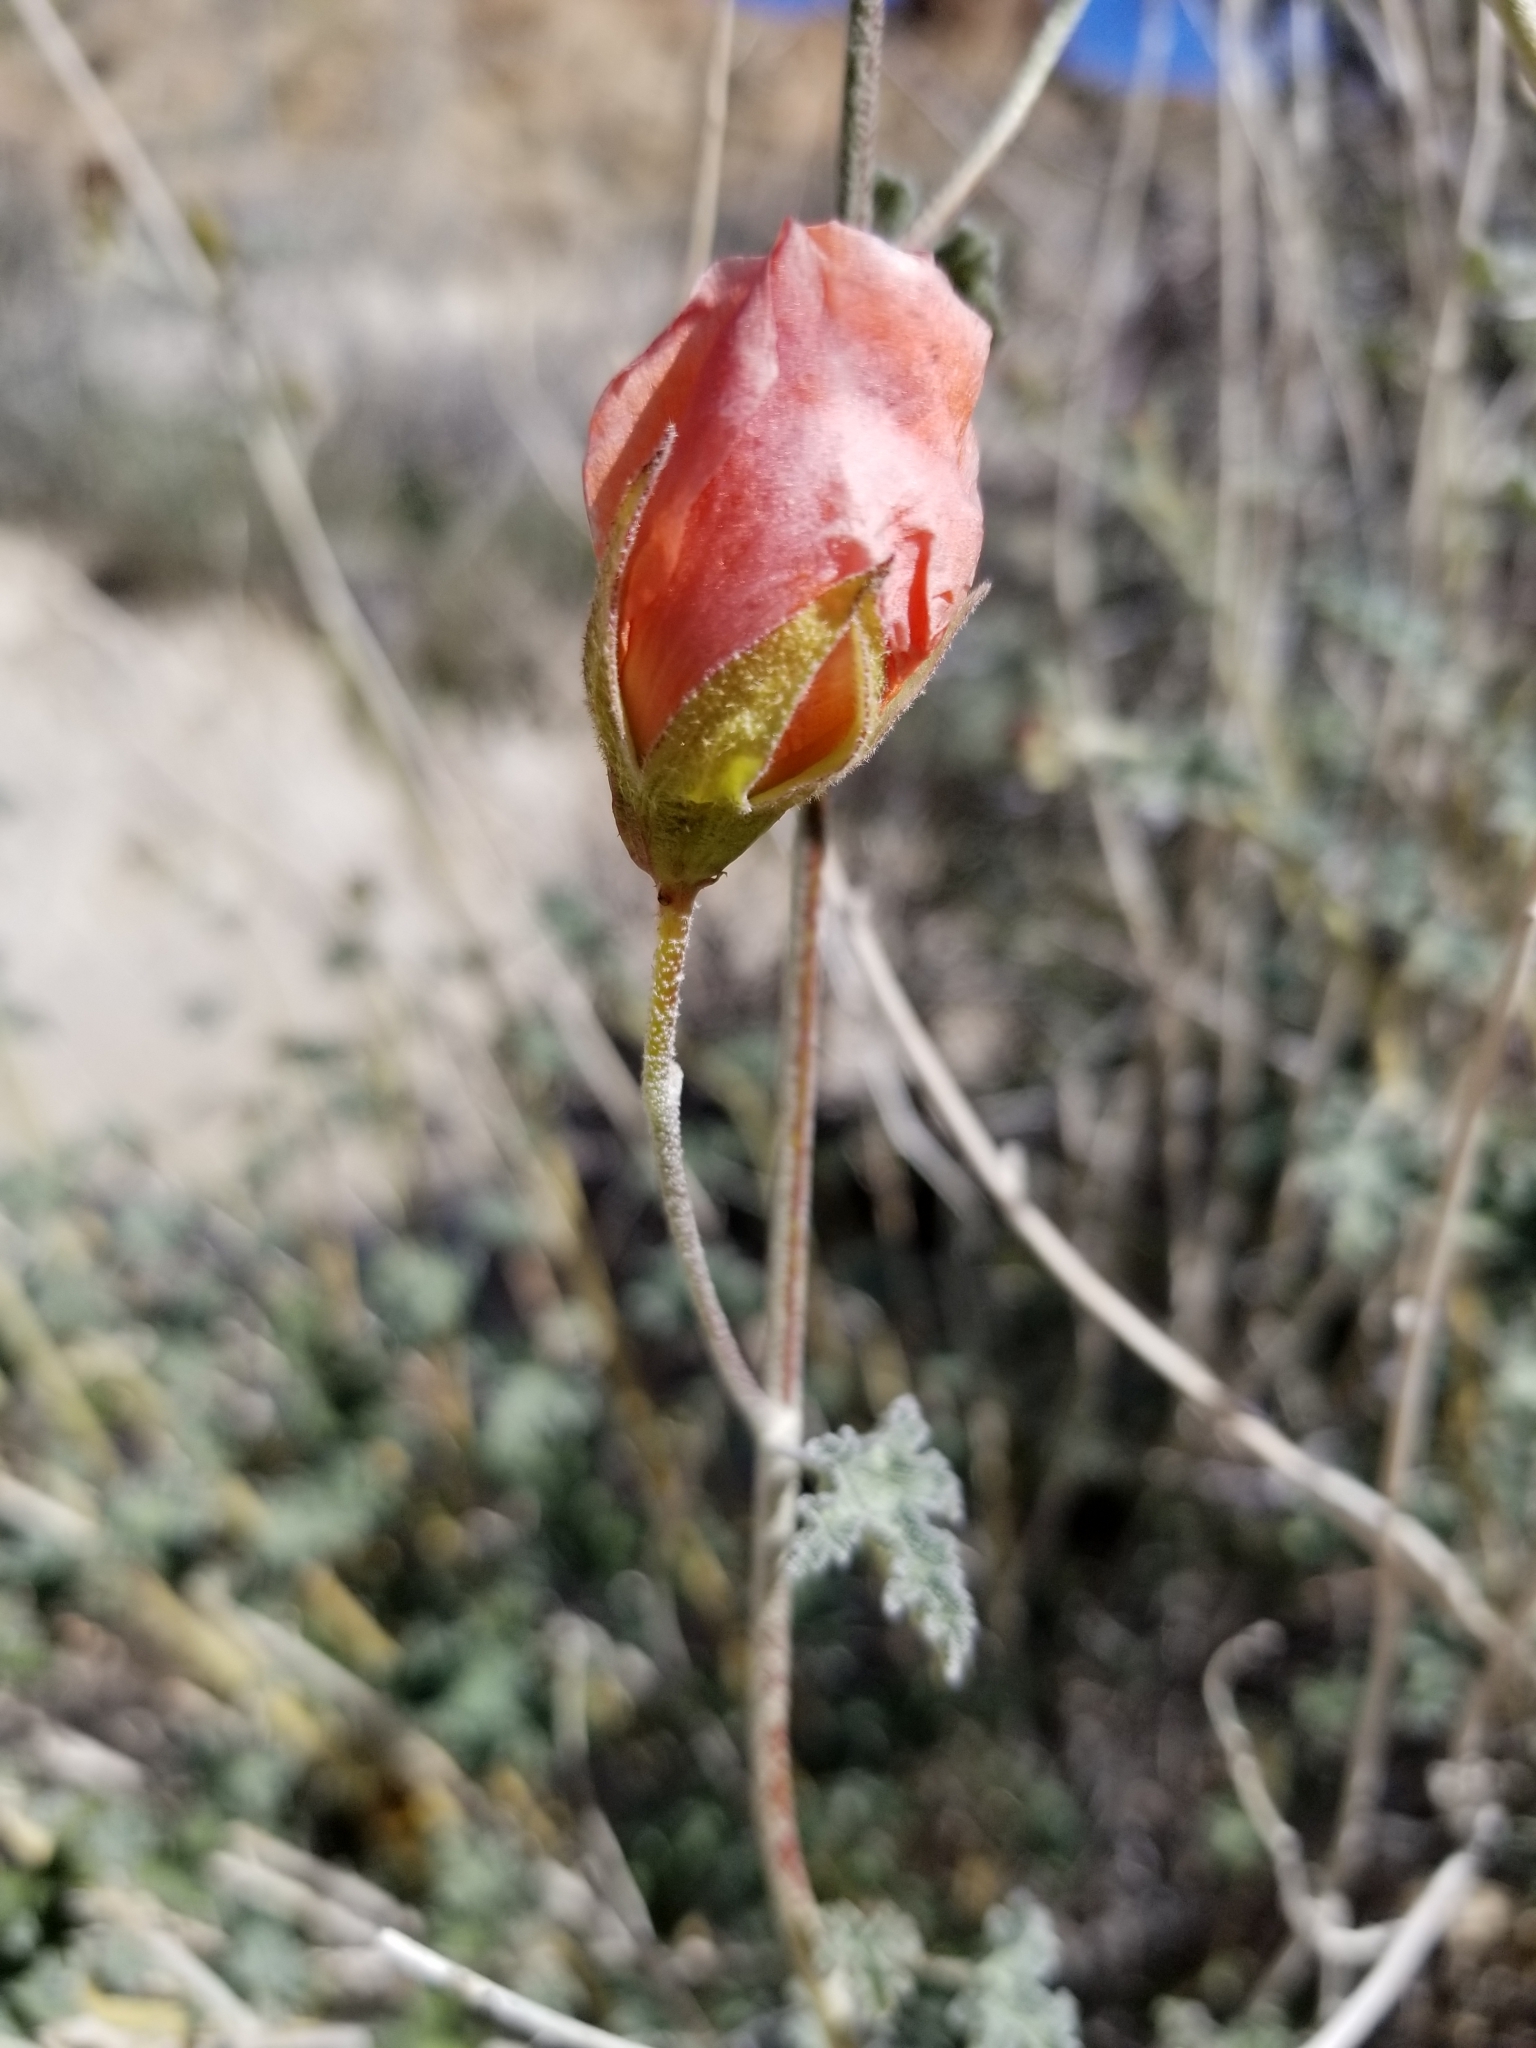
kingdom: Plantae
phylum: Tracheophyta
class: Magnoliopsida
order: Malvales
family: Malvaceae
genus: Sphaeralcea
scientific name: Sphaeralcea ambigua
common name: Apricot globe-mallow
